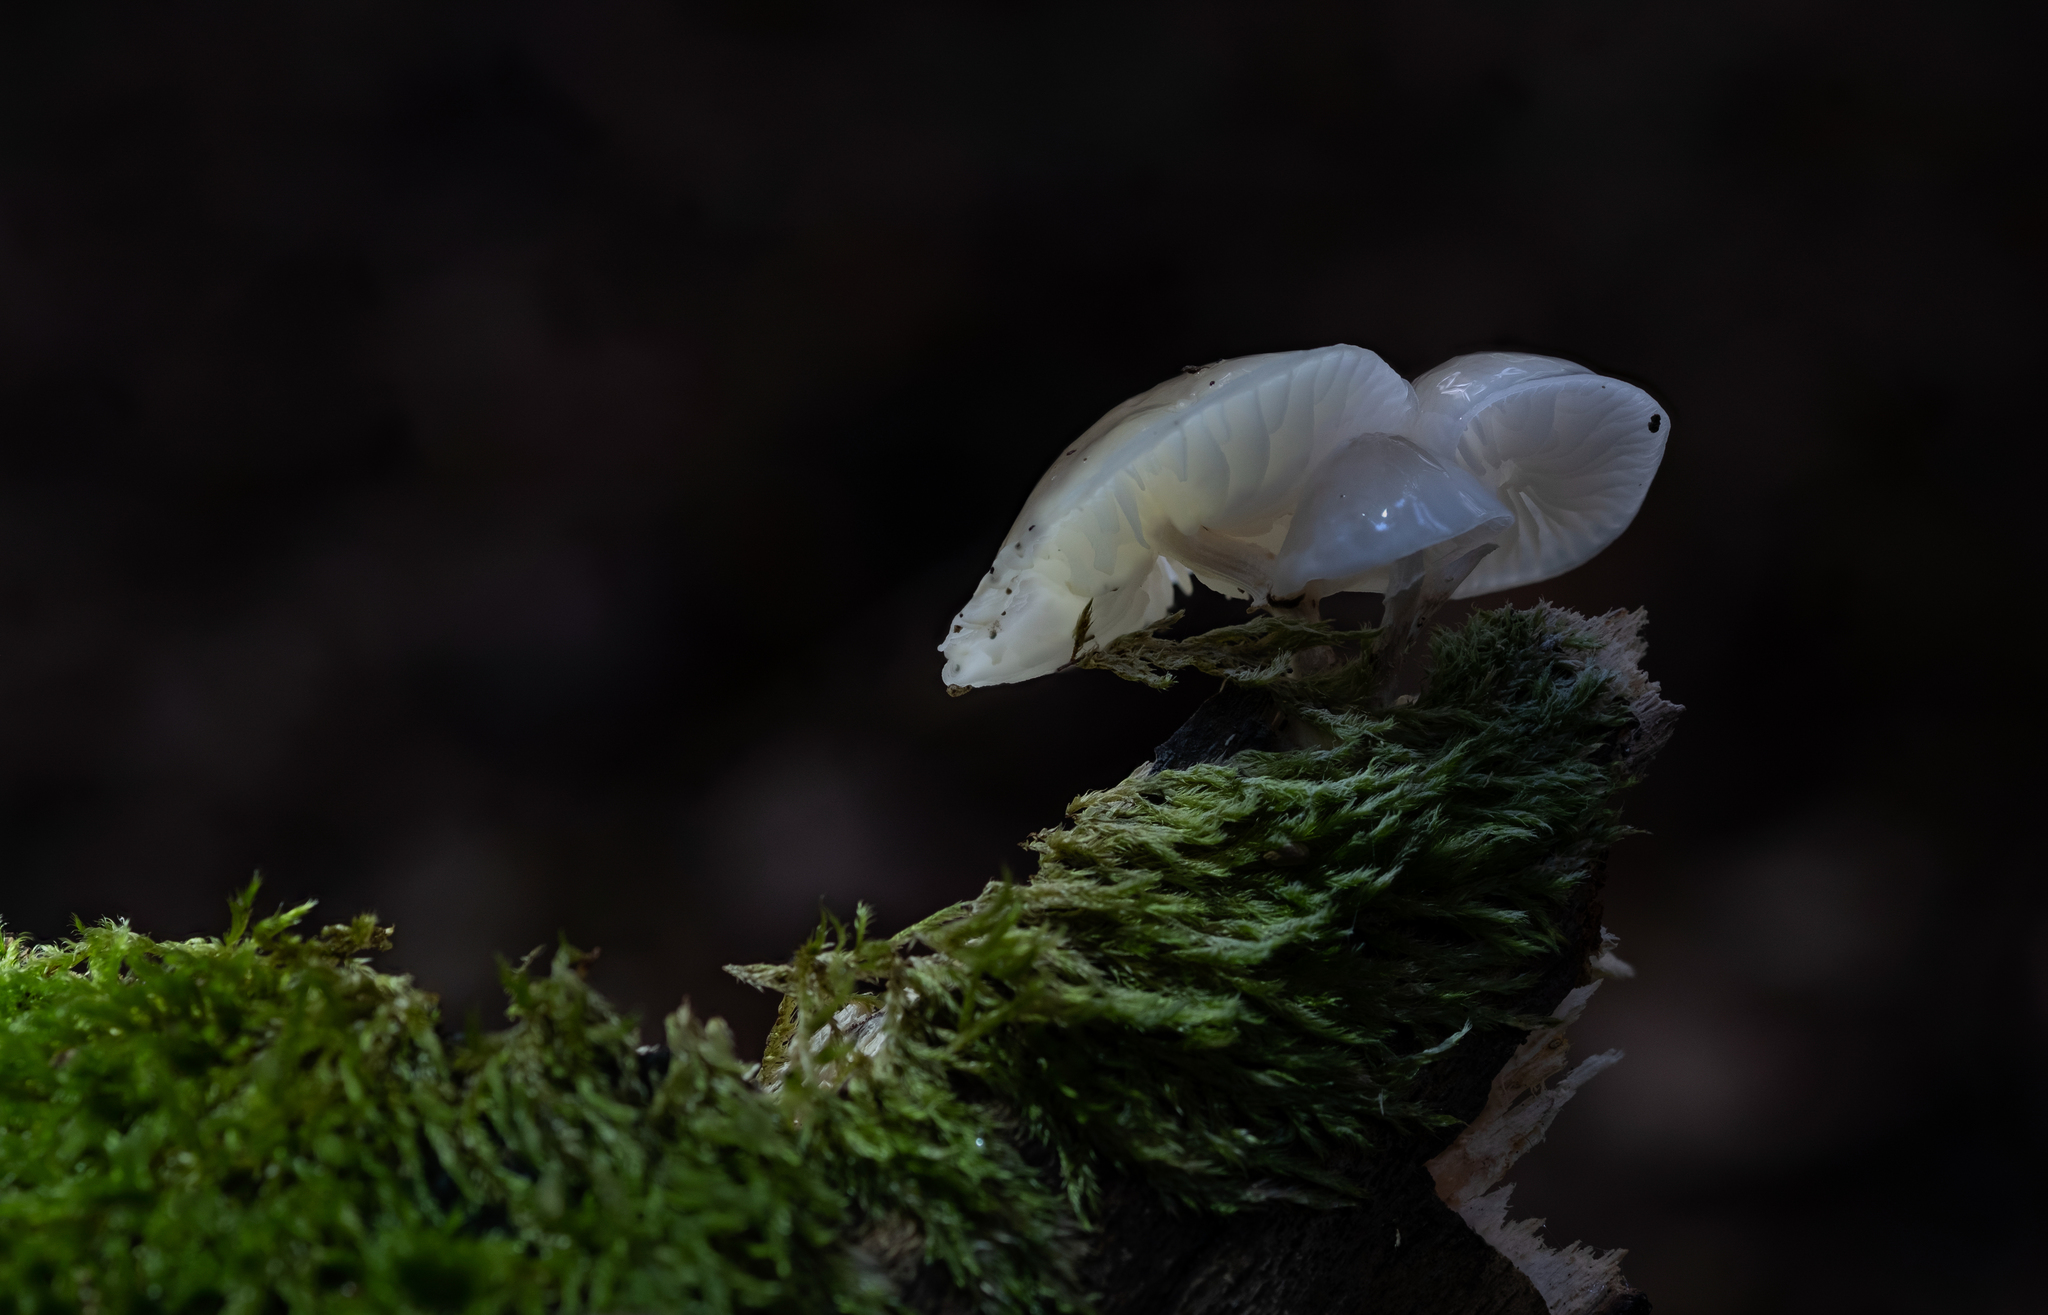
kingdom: Fungi
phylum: Basidiomycota
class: Agaricomycetes
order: Agaricales
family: Physalacriaceae
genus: Mucidula
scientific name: Mucidula mucida
